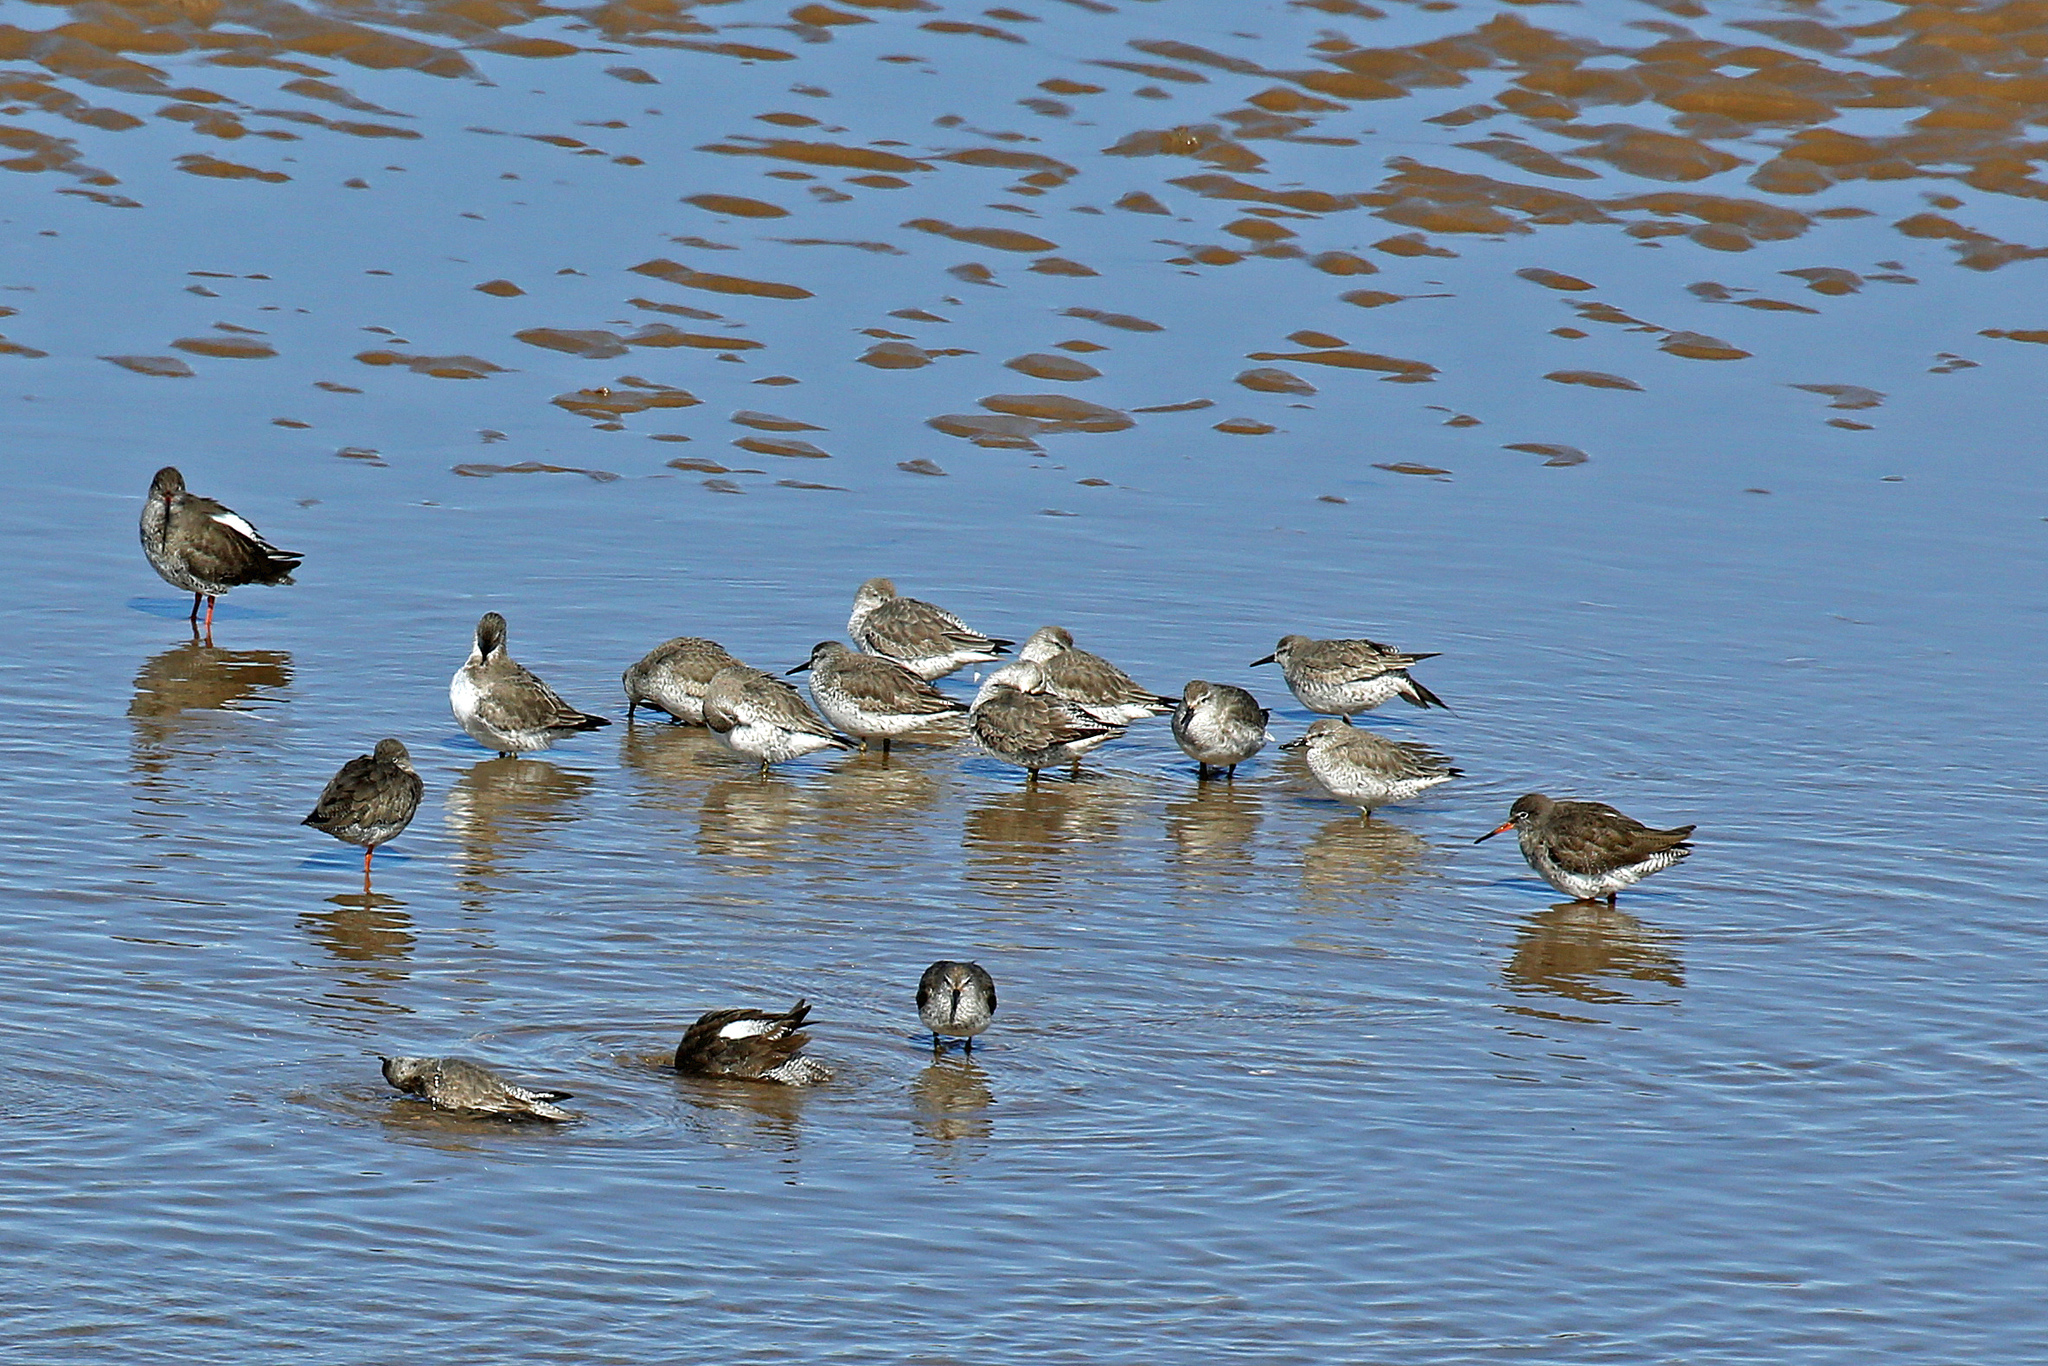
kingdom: Animalia
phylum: Chordata
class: Aves
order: Charadriiformes
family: Scolopacidae
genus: Calidris
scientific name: Calidris canutus
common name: Red knot
